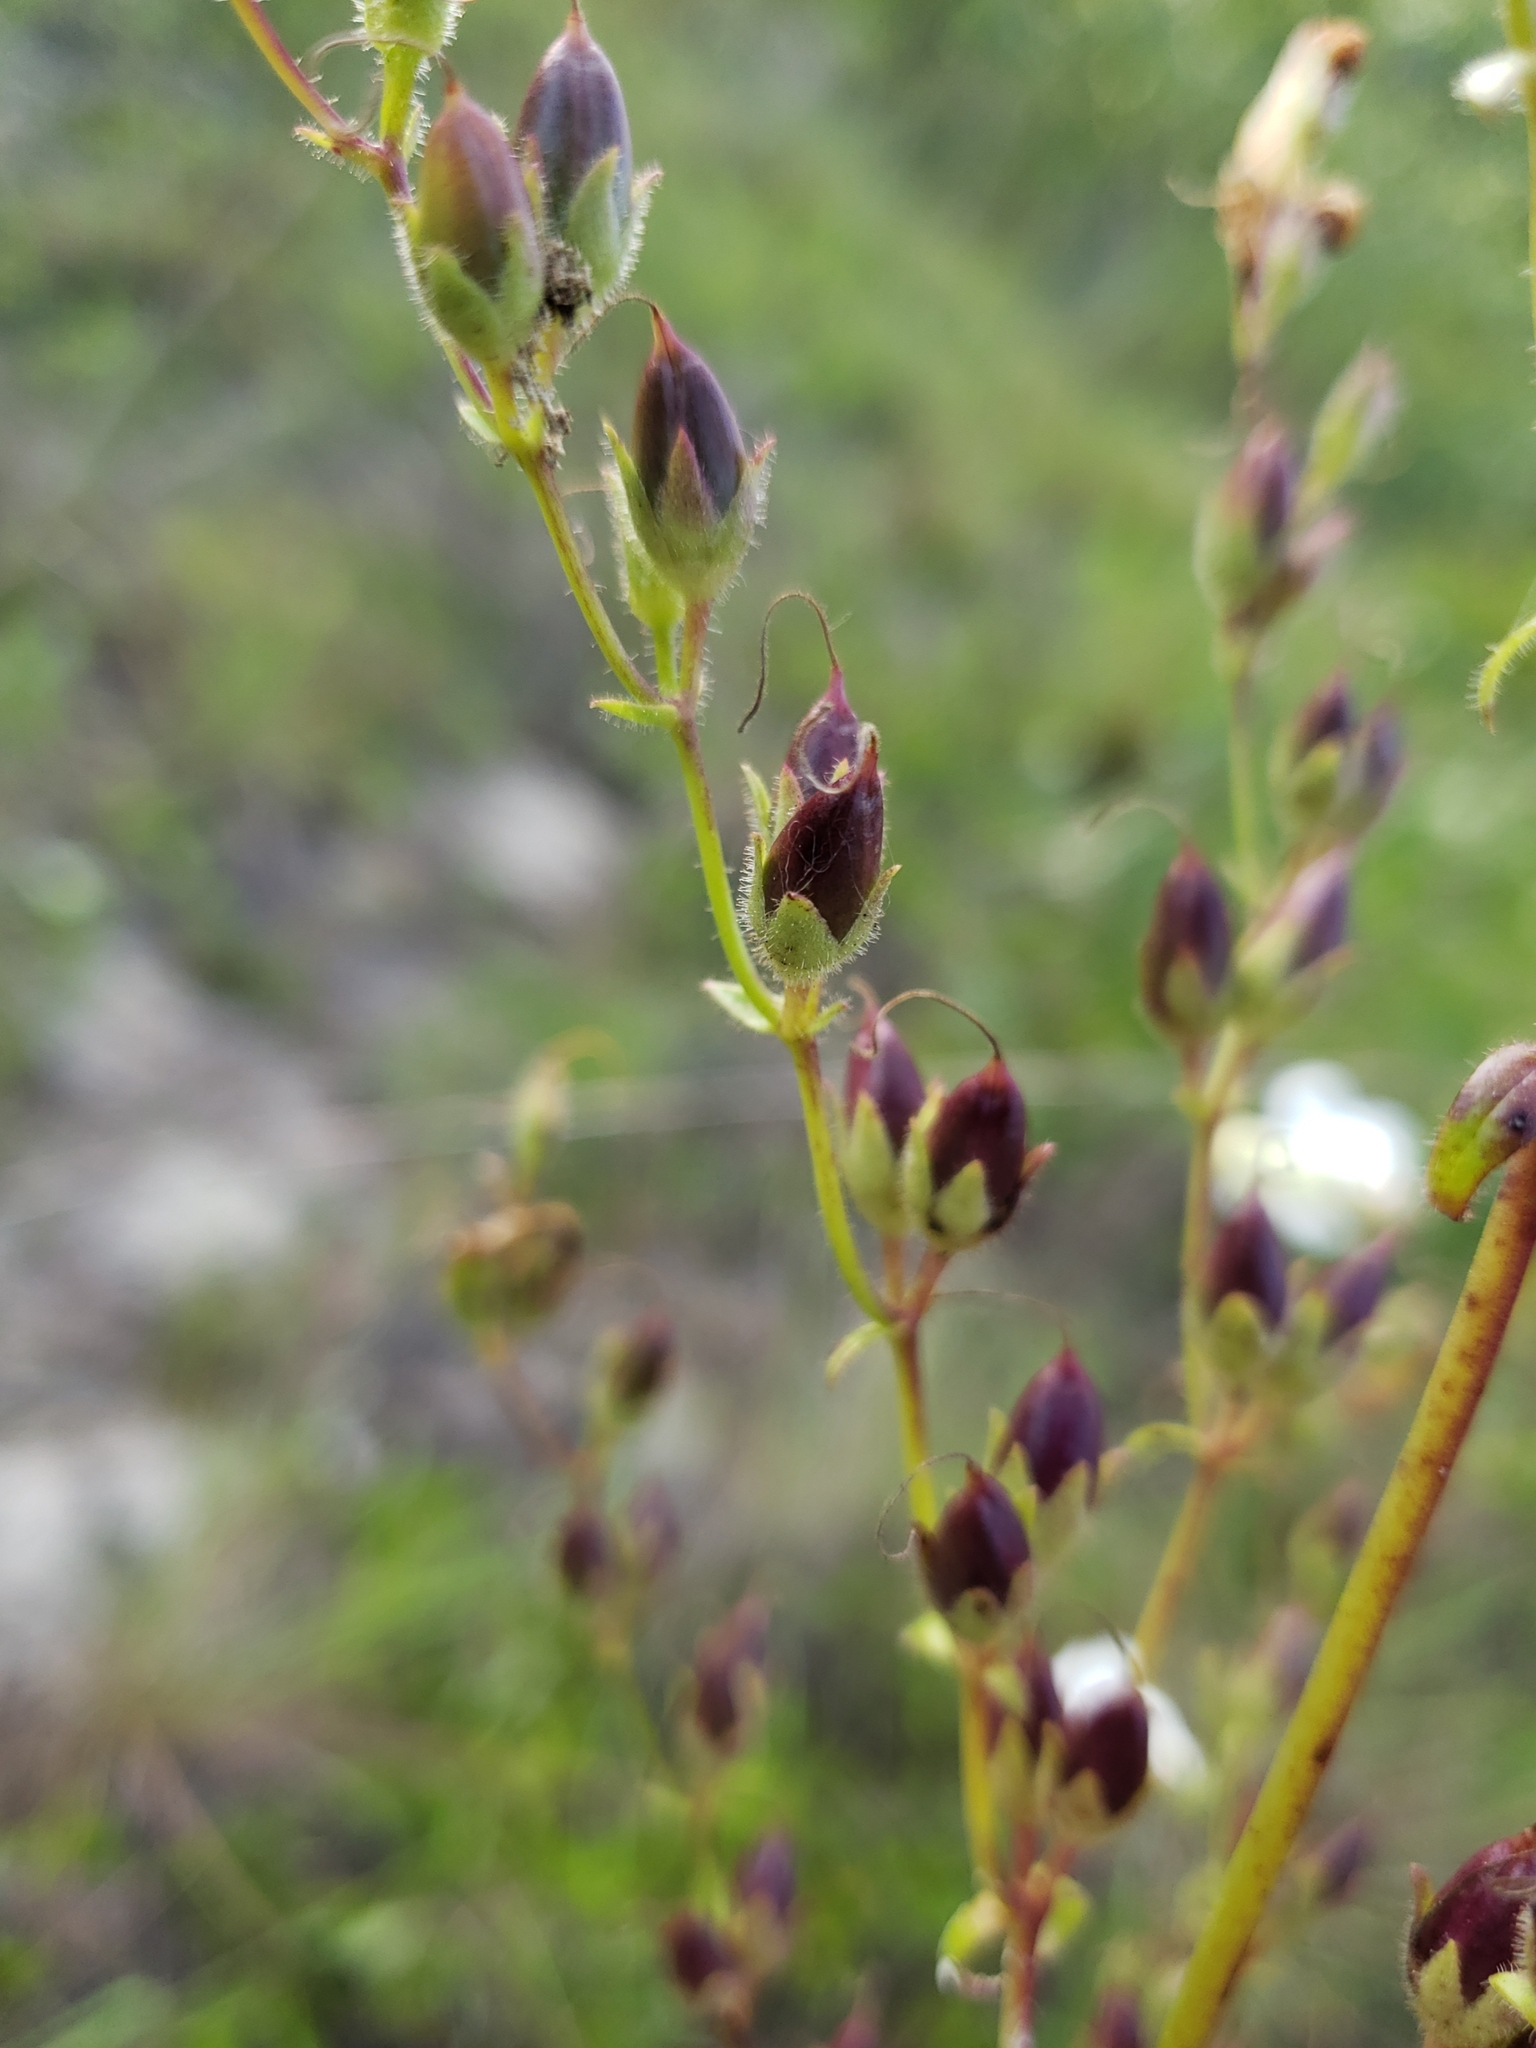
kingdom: Plantae
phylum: Tracheophyta
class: Magnoliopsida
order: Lamiales
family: Plantaginaceae
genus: Penstemon
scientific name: Penstemon multiflorus
